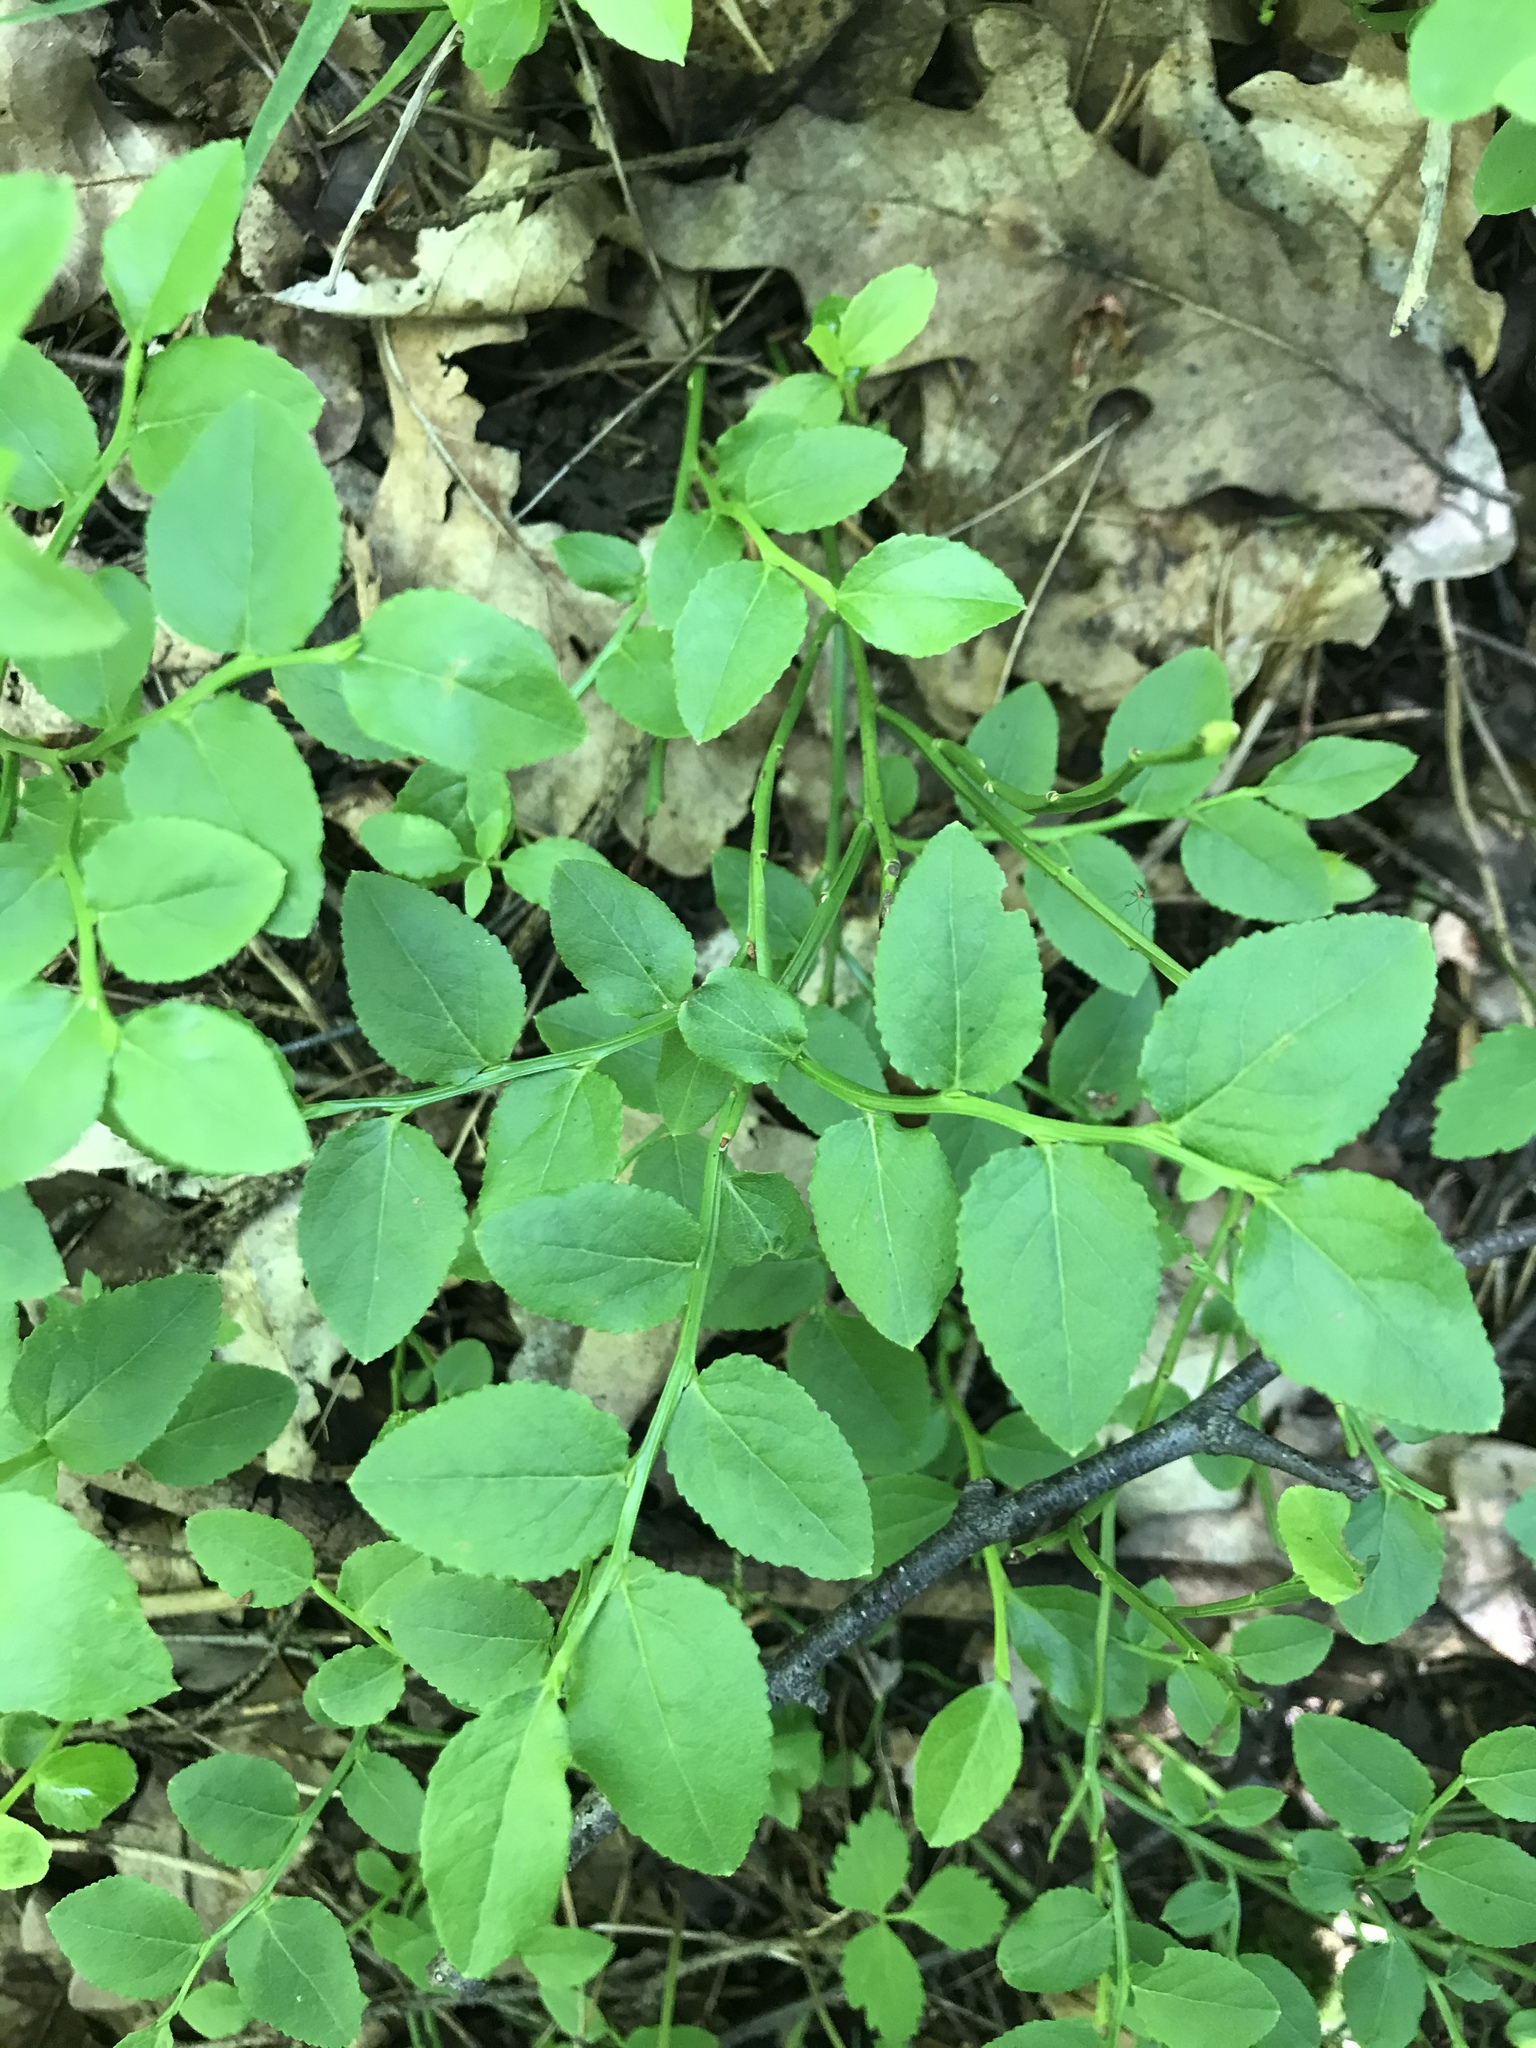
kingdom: Plantae
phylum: Tracheophyta
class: Magnoliopsida
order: Ericales
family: Ericaceae
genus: Vaccinium
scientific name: Vaccinium myrtillus
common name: Bilberry
